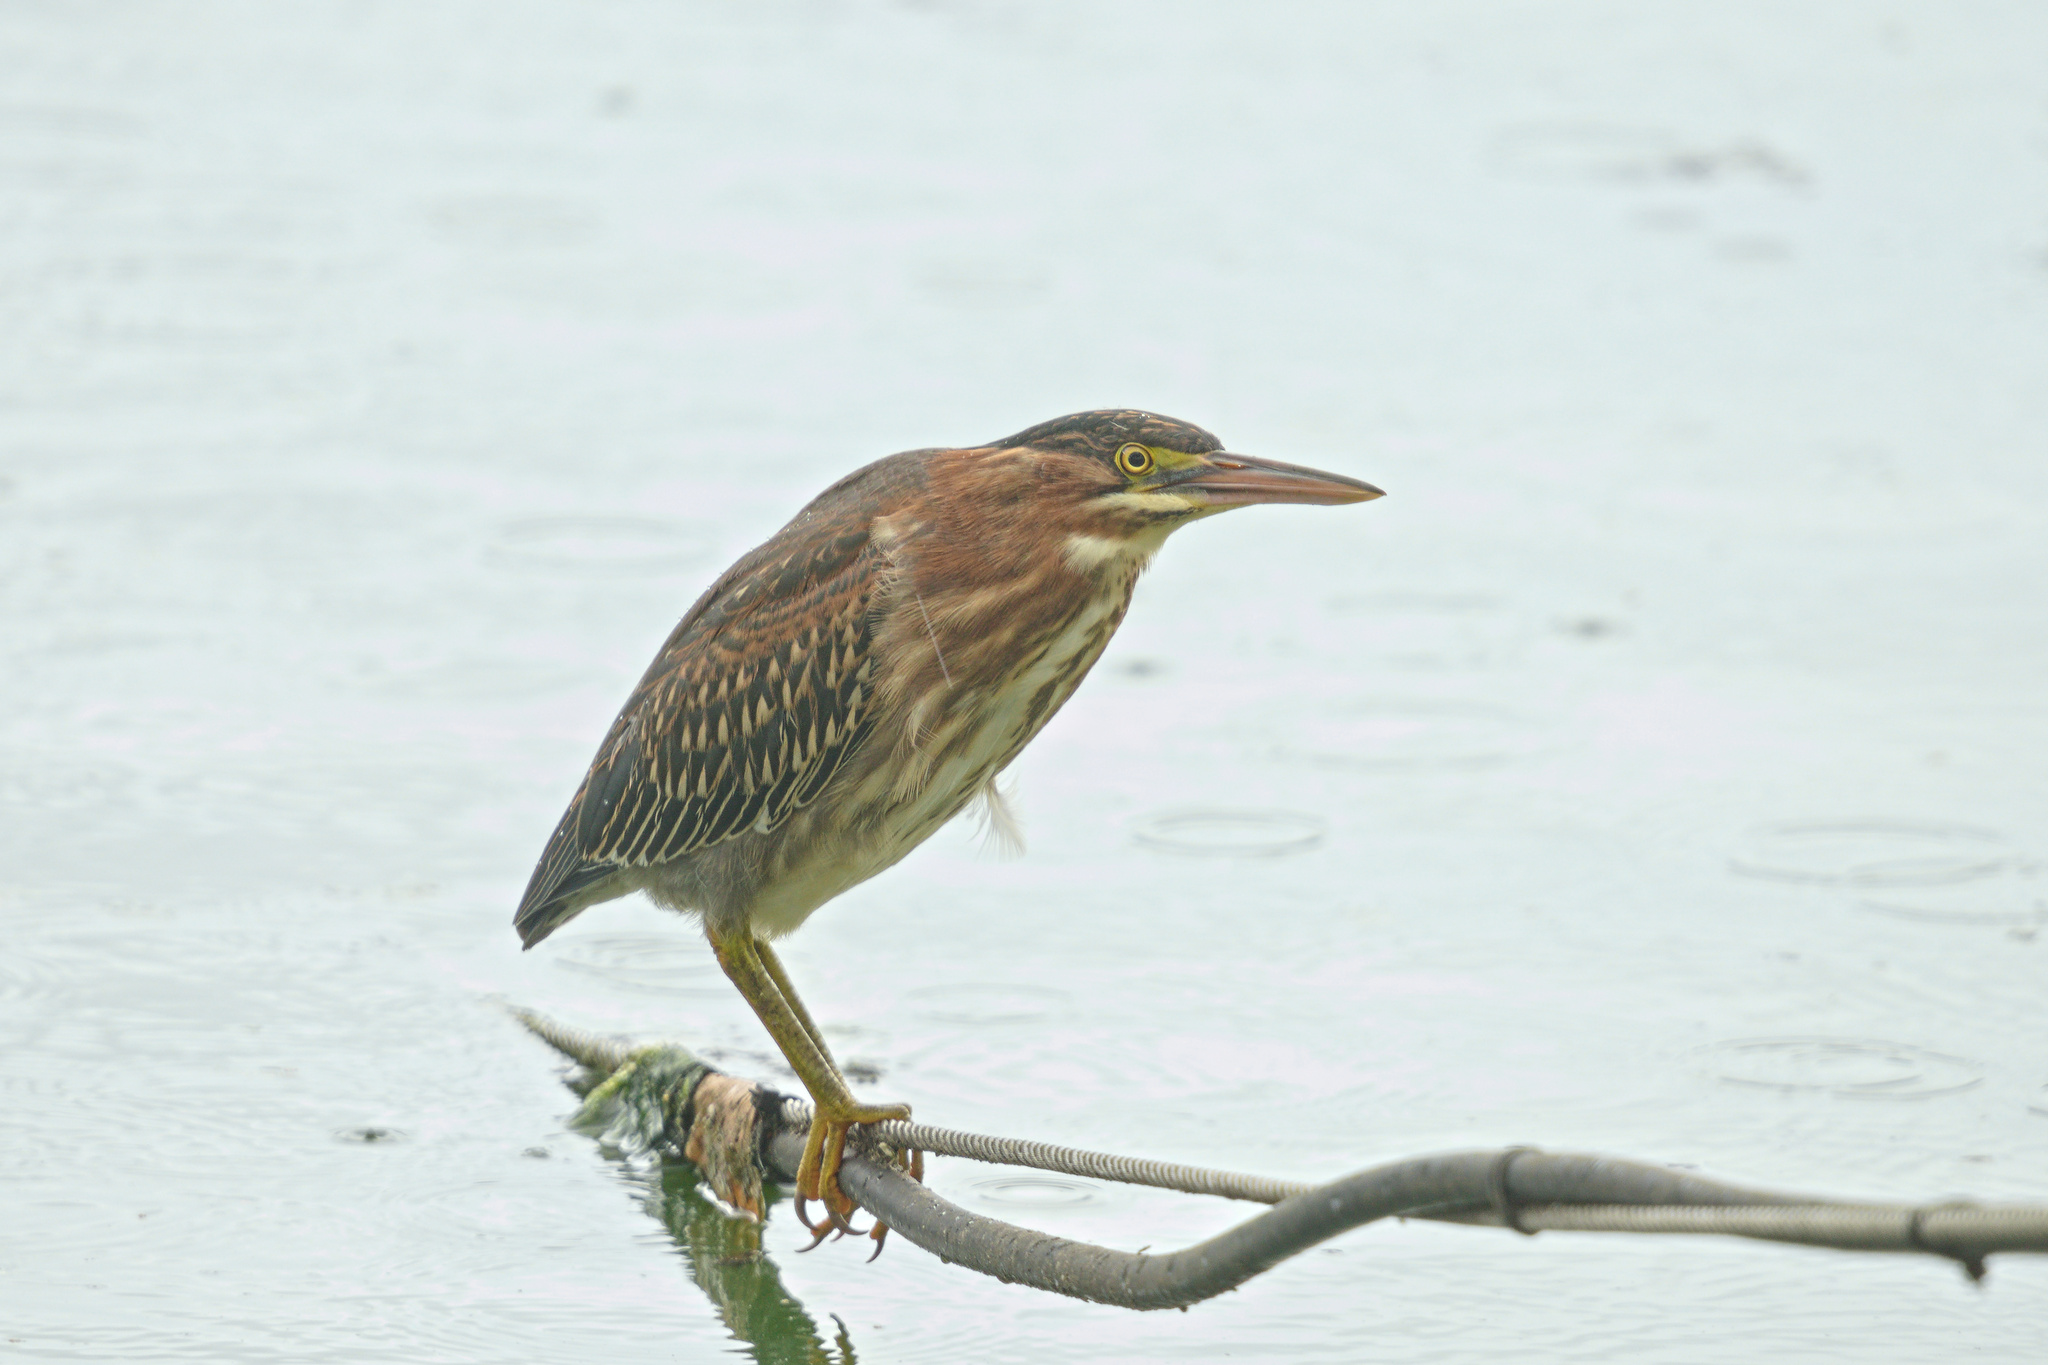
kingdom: Animalia
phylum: Chordata
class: Aves
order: Pelecaniformes
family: Ardeidae
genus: Butorides
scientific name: Butorides virescens
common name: Green heron
